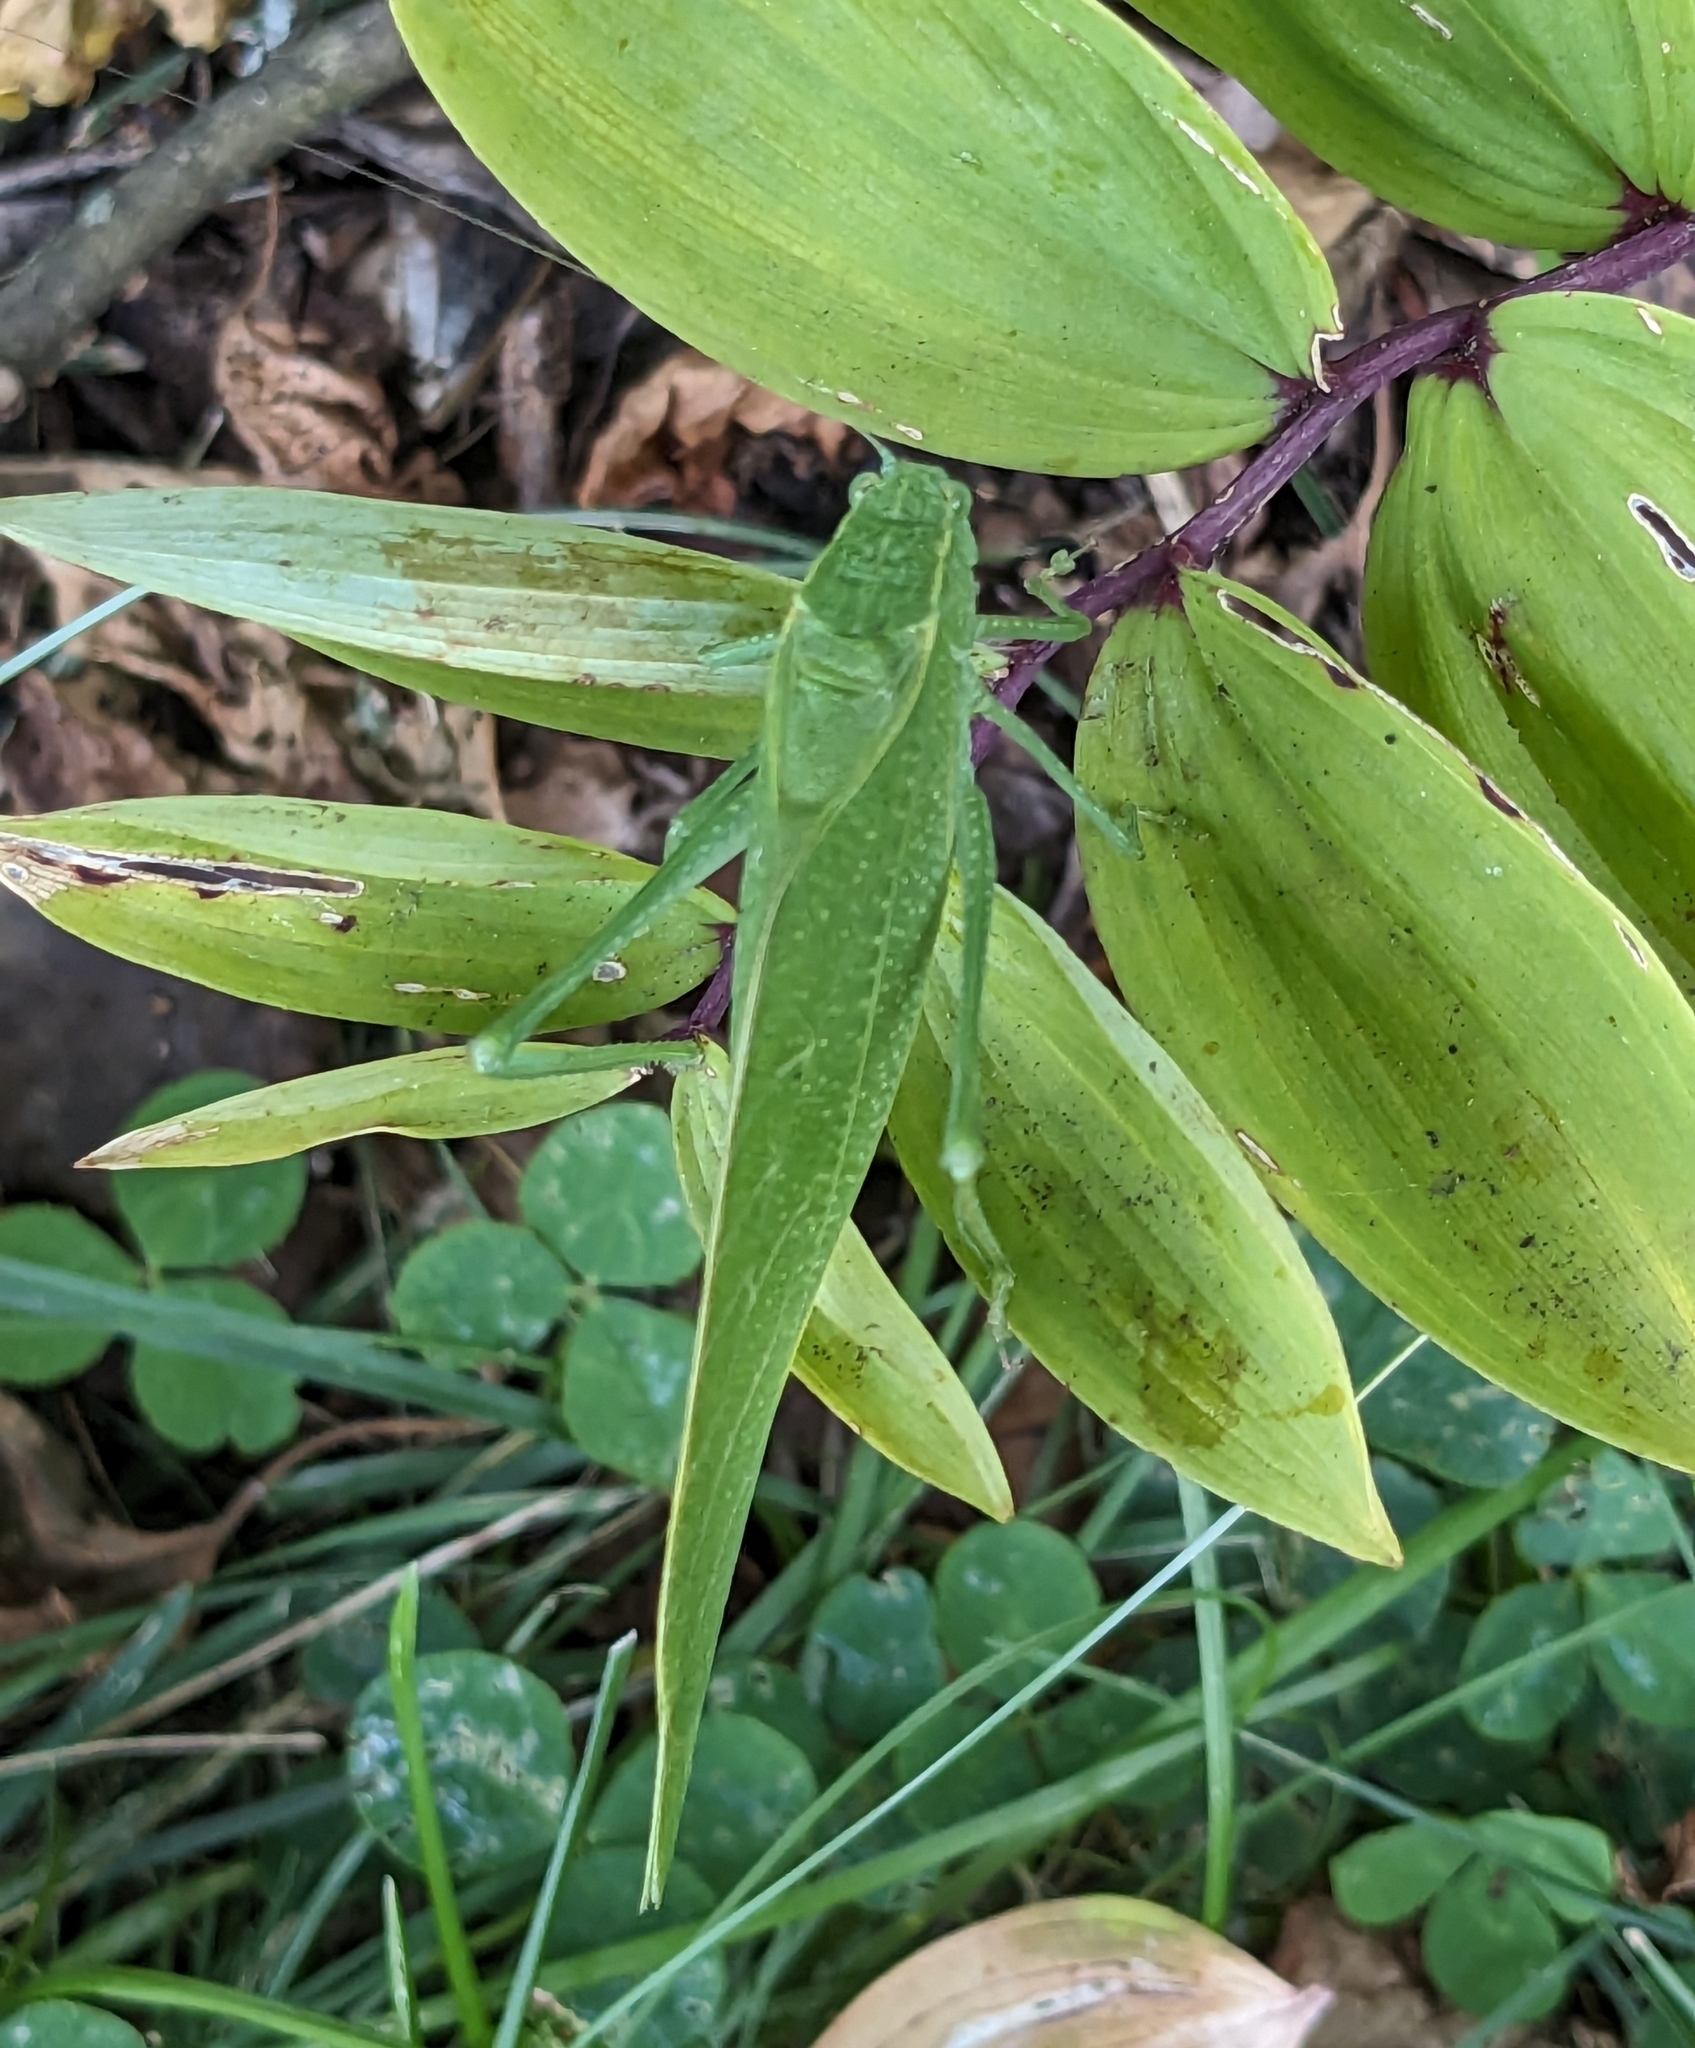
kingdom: Animalia
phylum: Arthropoda
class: Insecta
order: Orthoptera
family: Tettigoniidae
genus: Microcentrum
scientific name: Microcentrum rhombifolium
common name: Broad-winged katydid
